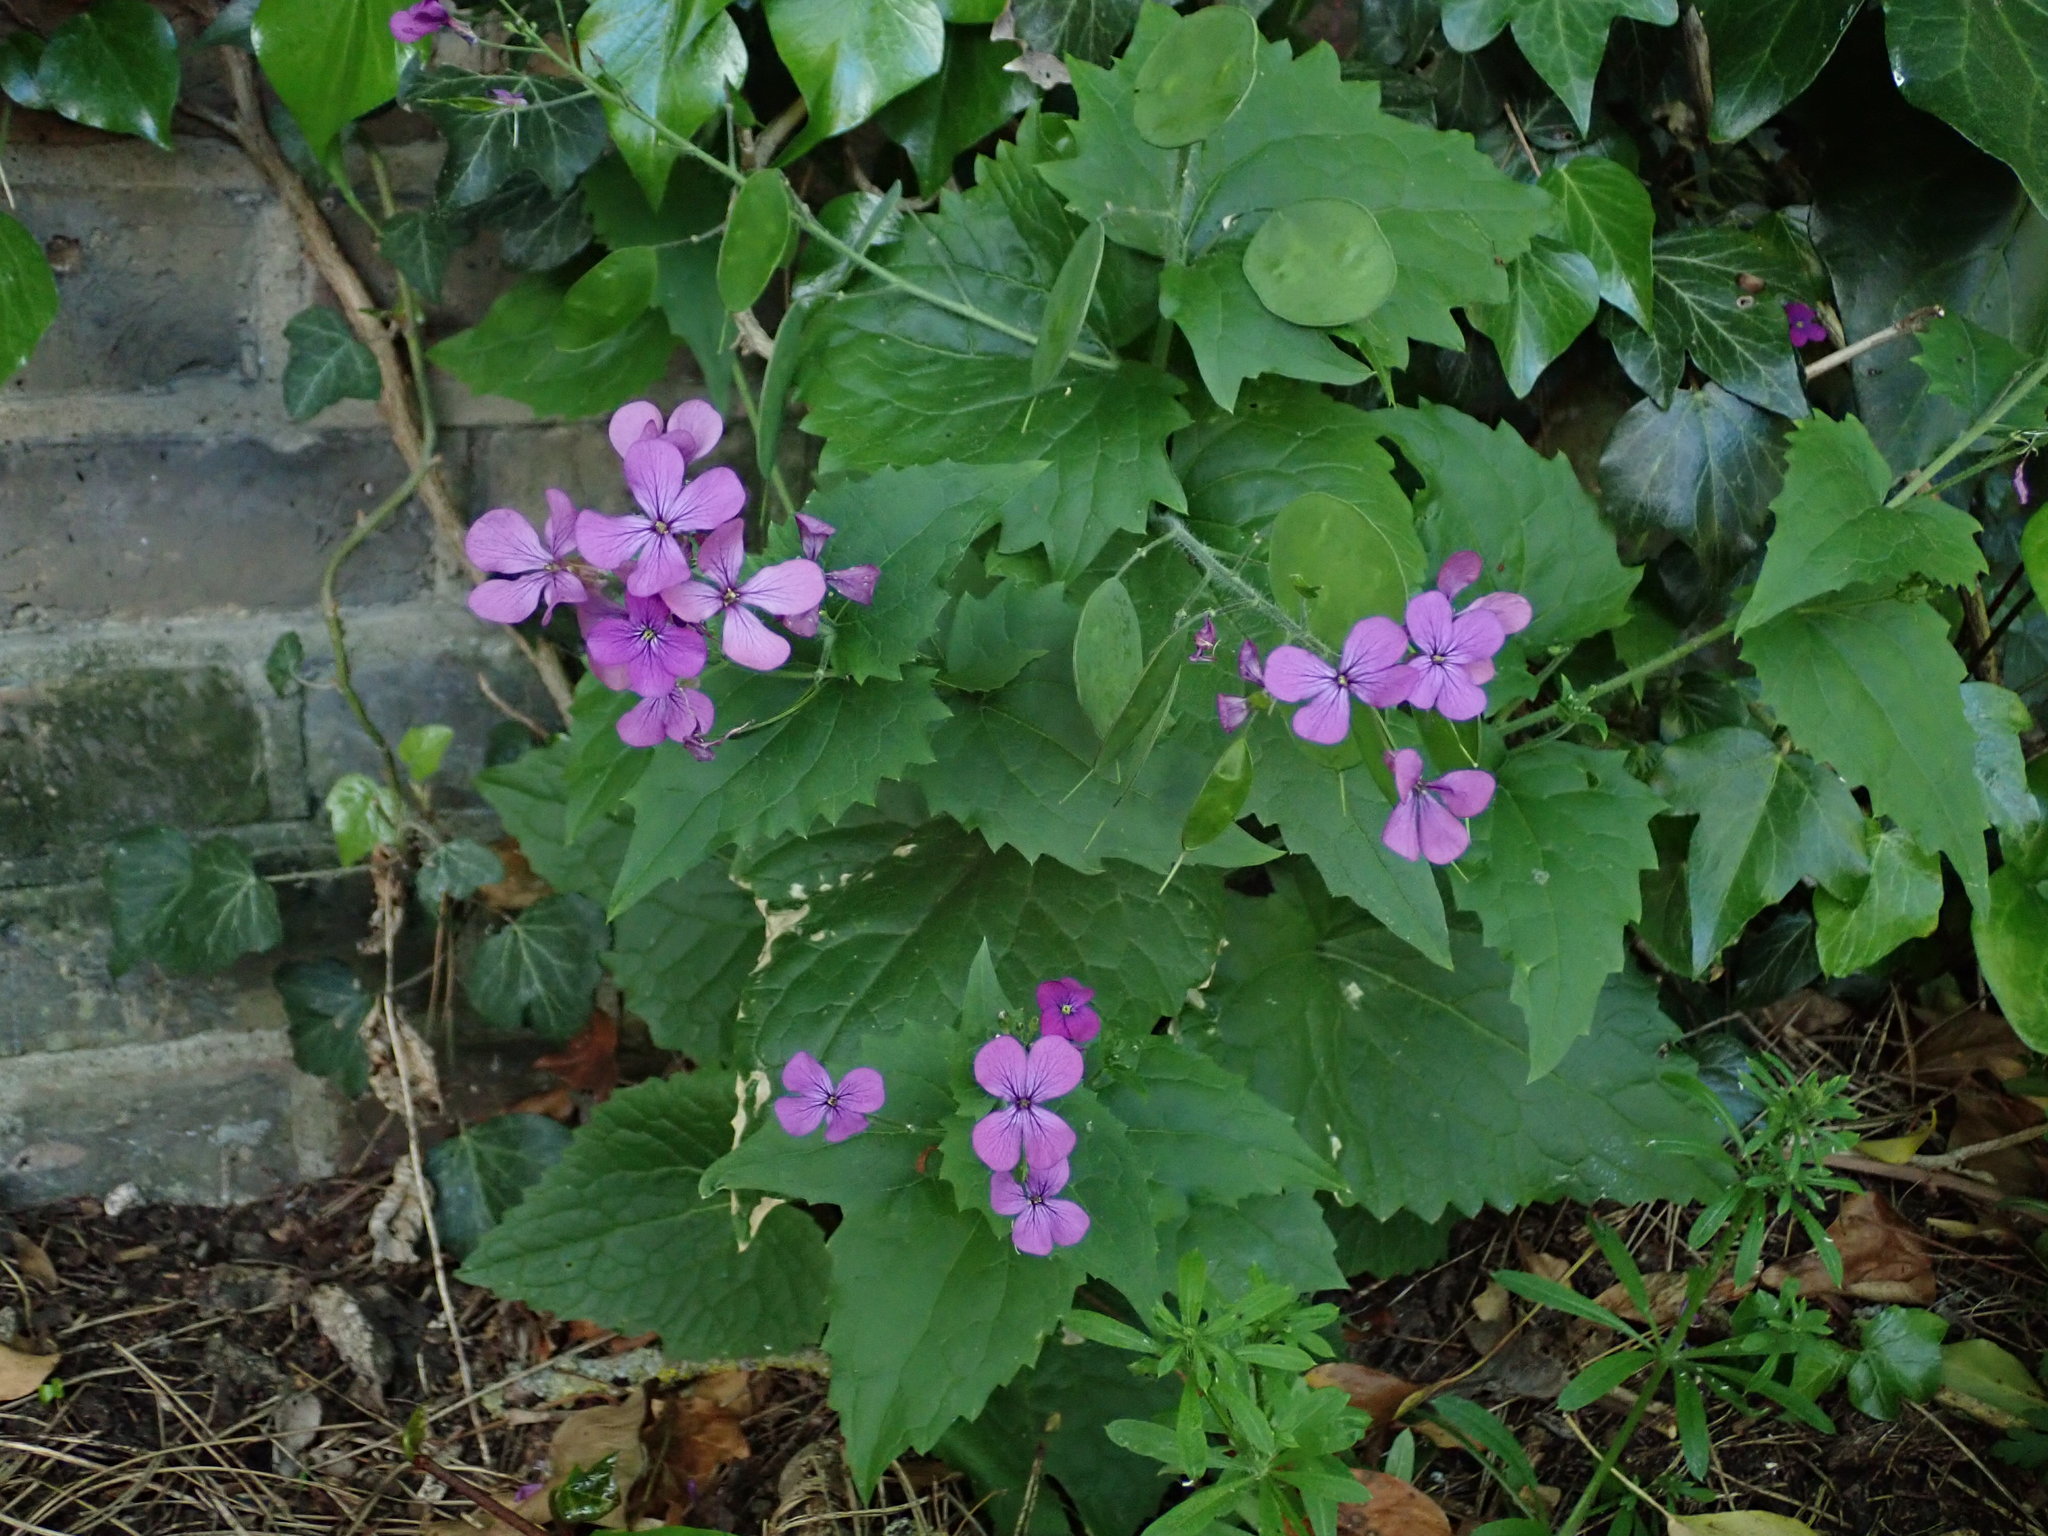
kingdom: Plantae
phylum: Tracheophyta
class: Magnoliopsida
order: Brassicales
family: Brassicaceae
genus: Lunaria
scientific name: Lunaria annua
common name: Honesty
